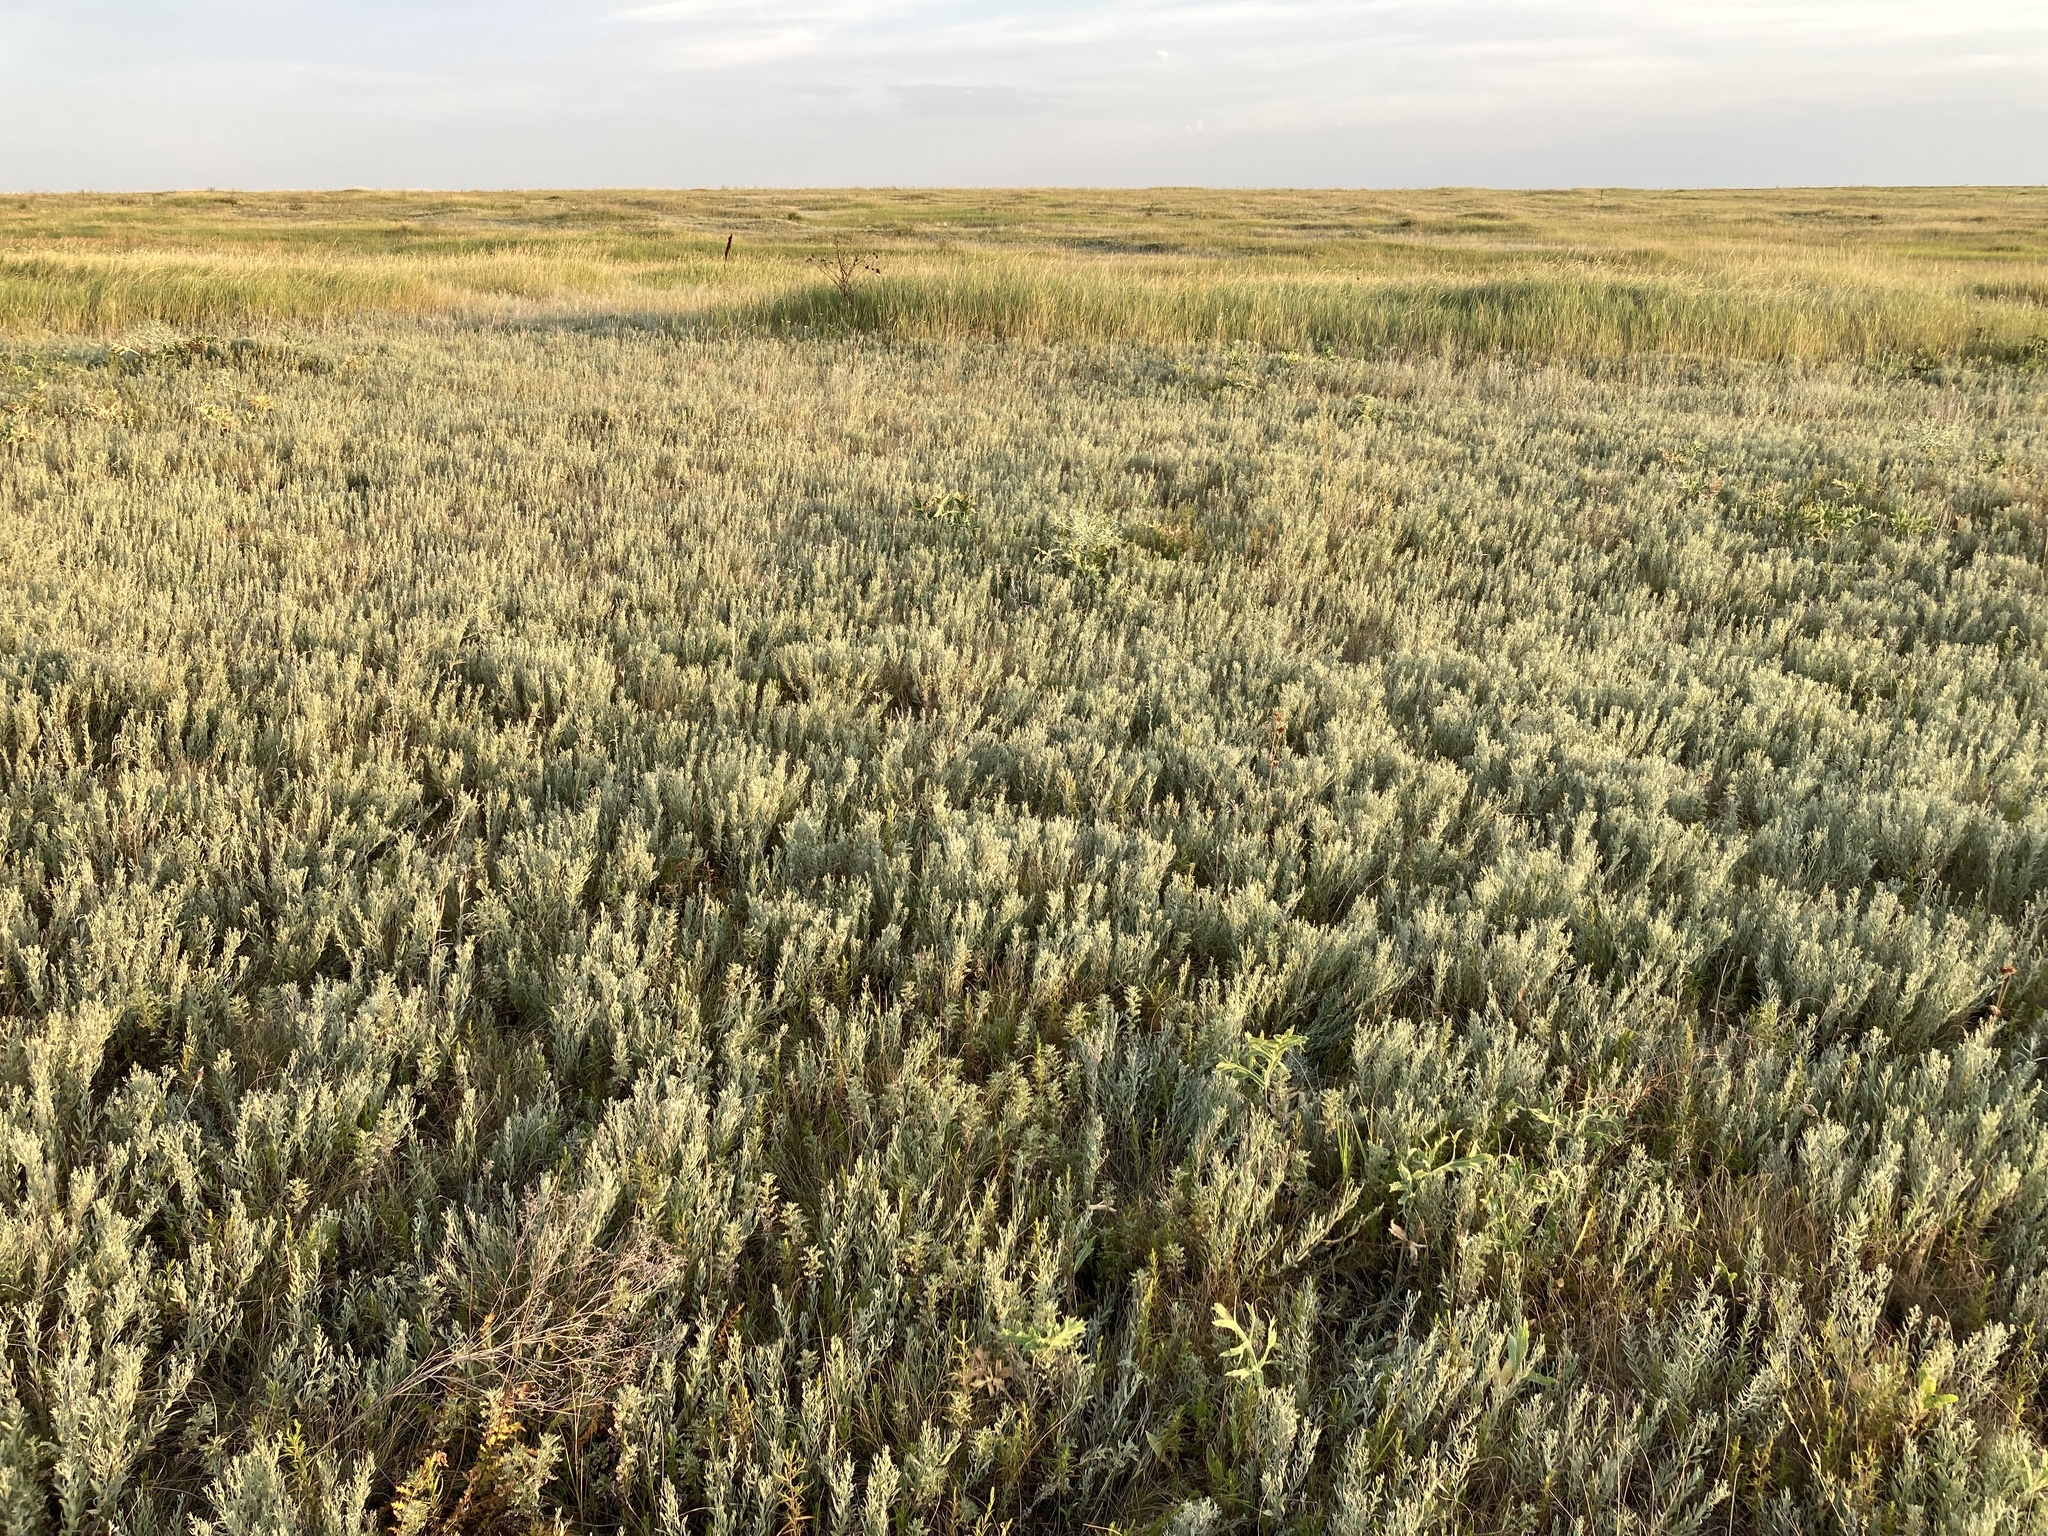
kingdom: Plantae
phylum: Tracheophyta
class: Magnoliopsida
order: Asterales
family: Asteraceae
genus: Galatella
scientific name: Galatella villosa
